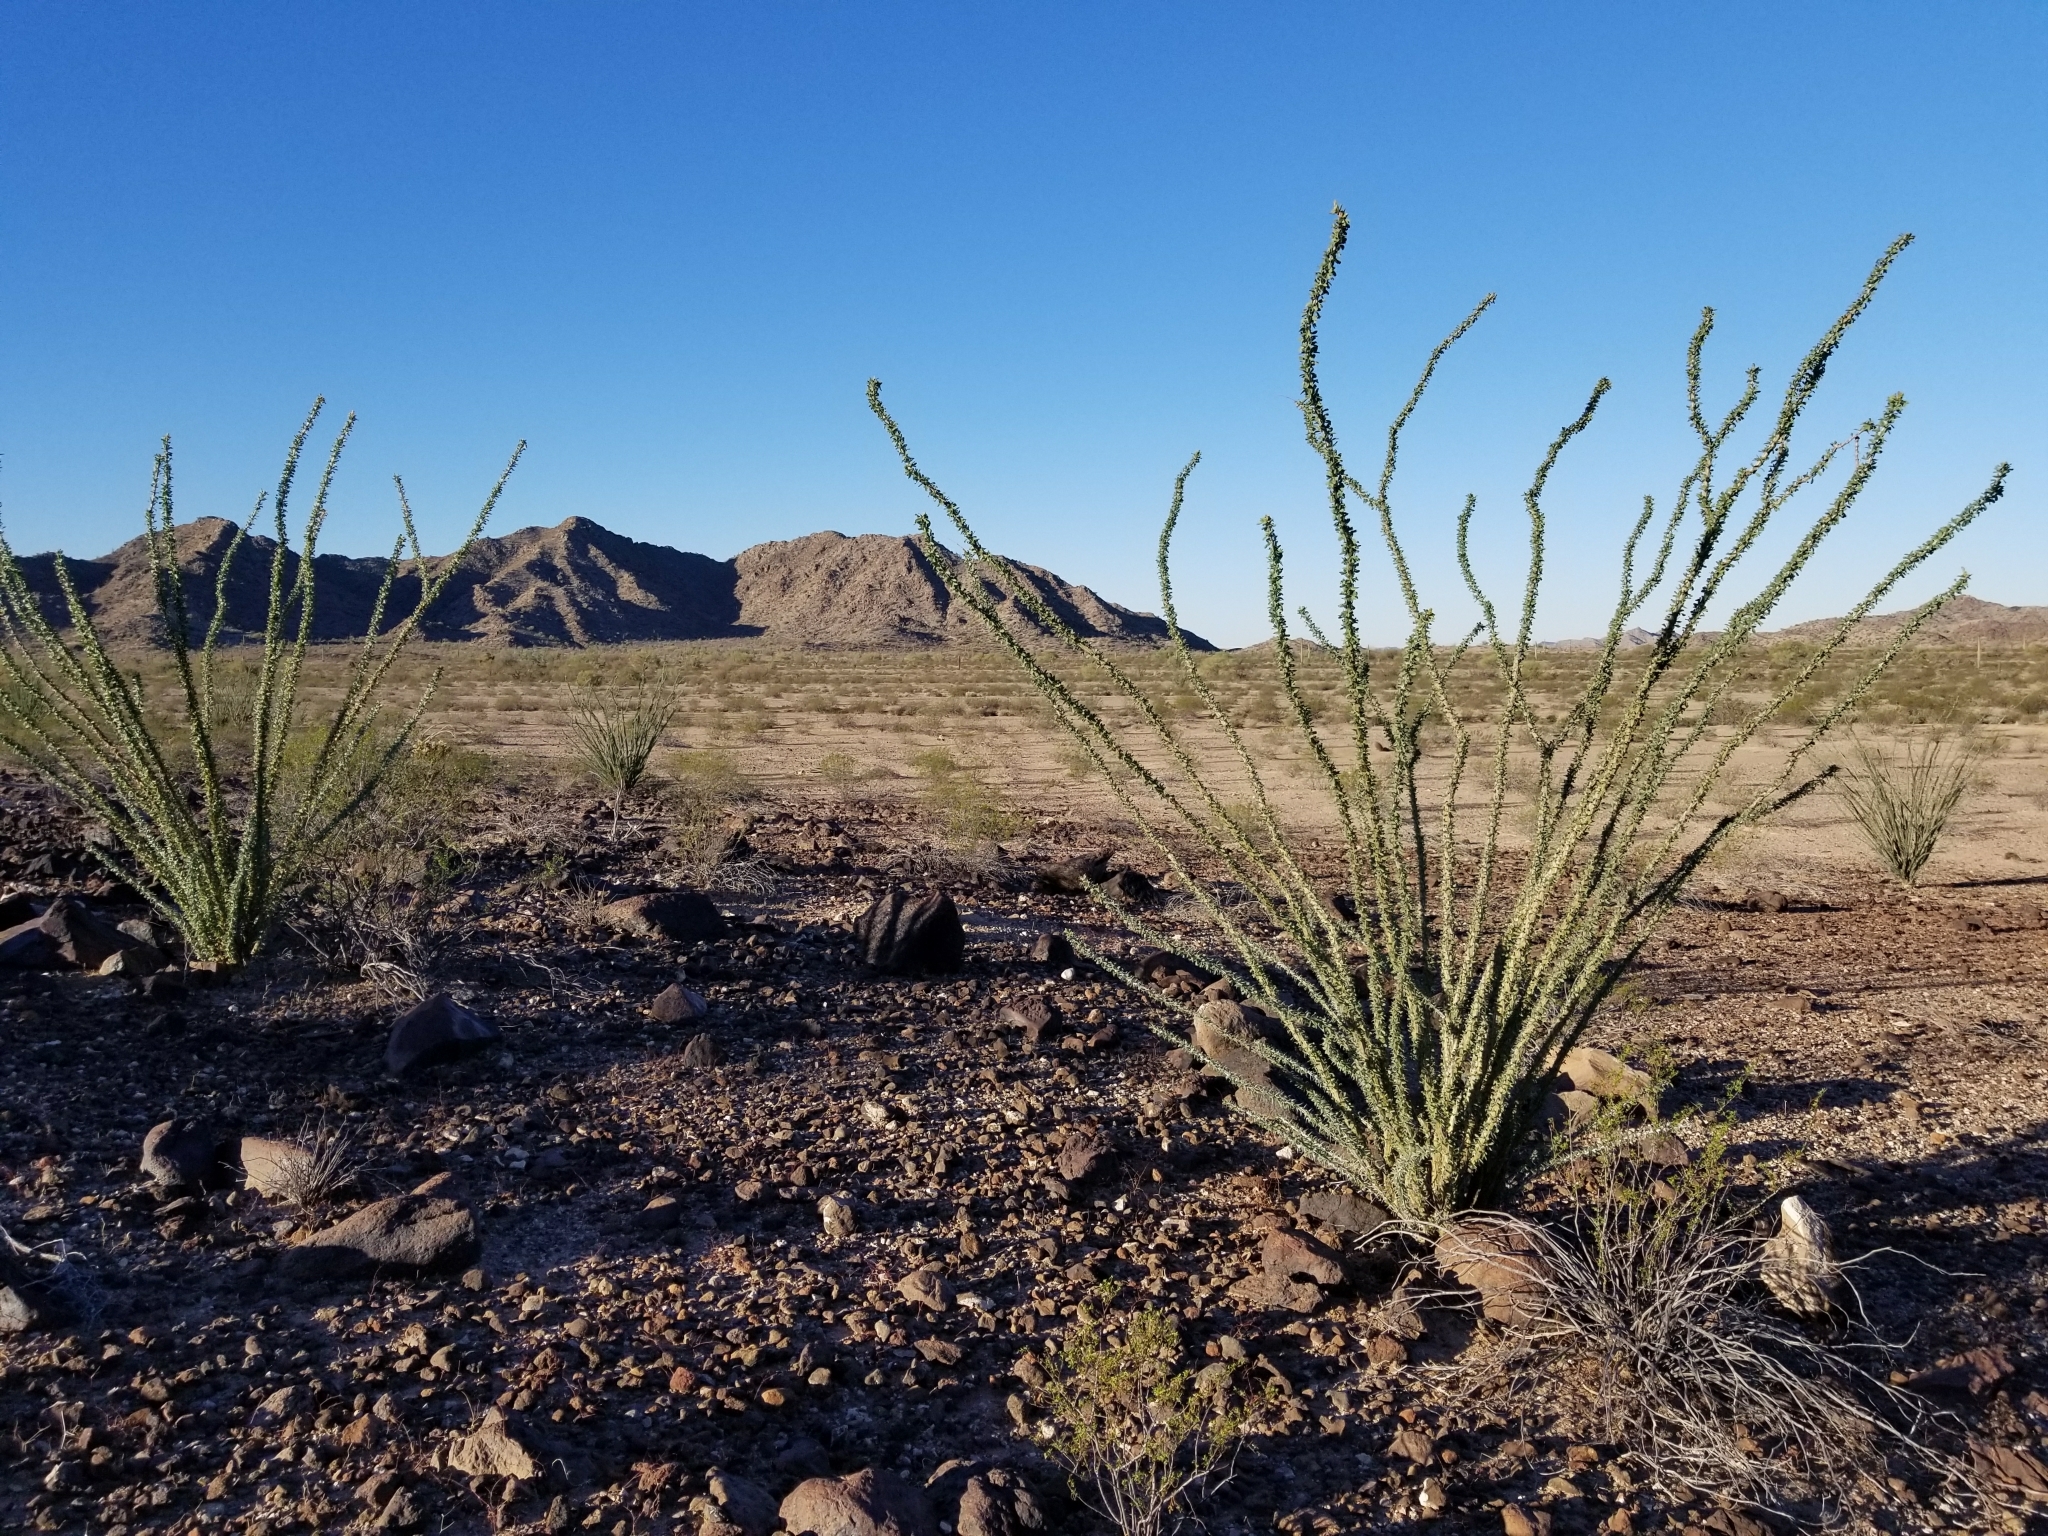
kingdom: Plantae
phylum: Tracheophyta
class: Magnoliopsida
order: Ericales
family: Fouquieriaceae
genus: Fouquieria
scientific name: Fouquieria splendens
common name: Vine-cactus
